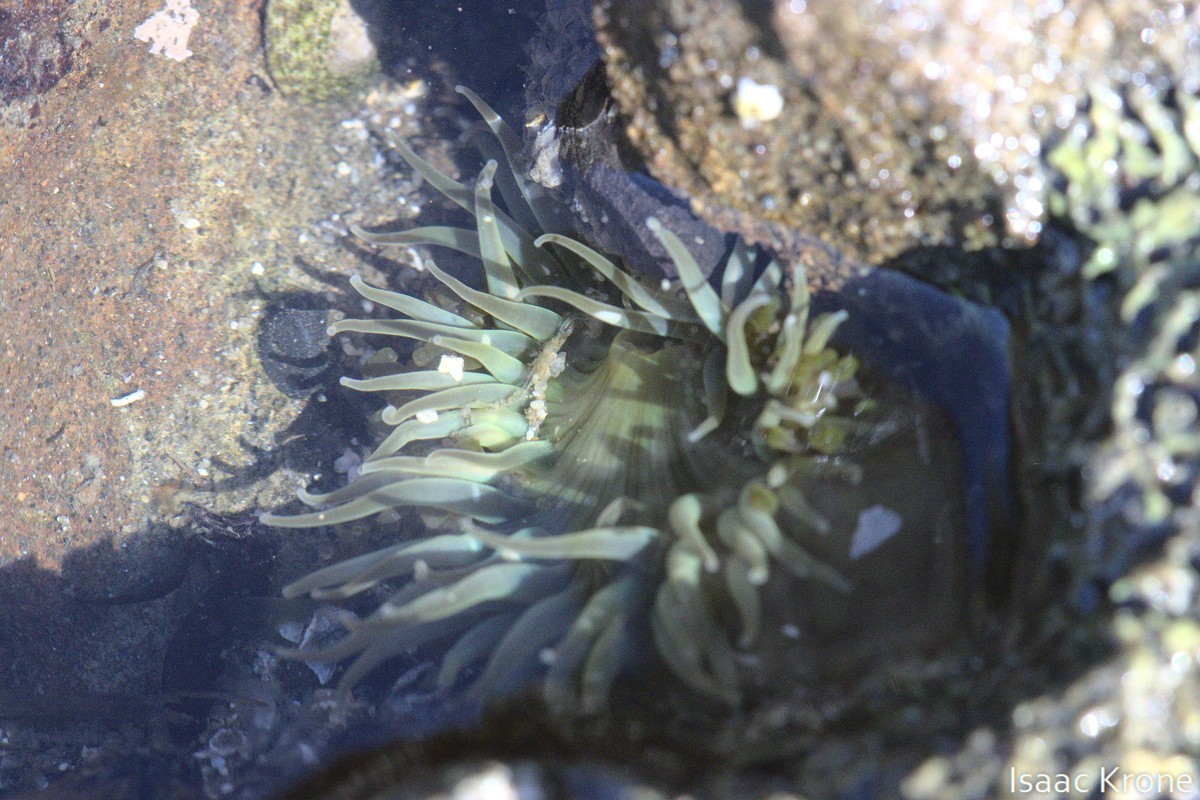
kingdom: Animalia
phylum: Cnidaria
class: Anthozoa
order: Actiniaria
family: Actiniidae
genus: Anthopleura
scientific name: Anthopleura sola
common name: Sun anemone
